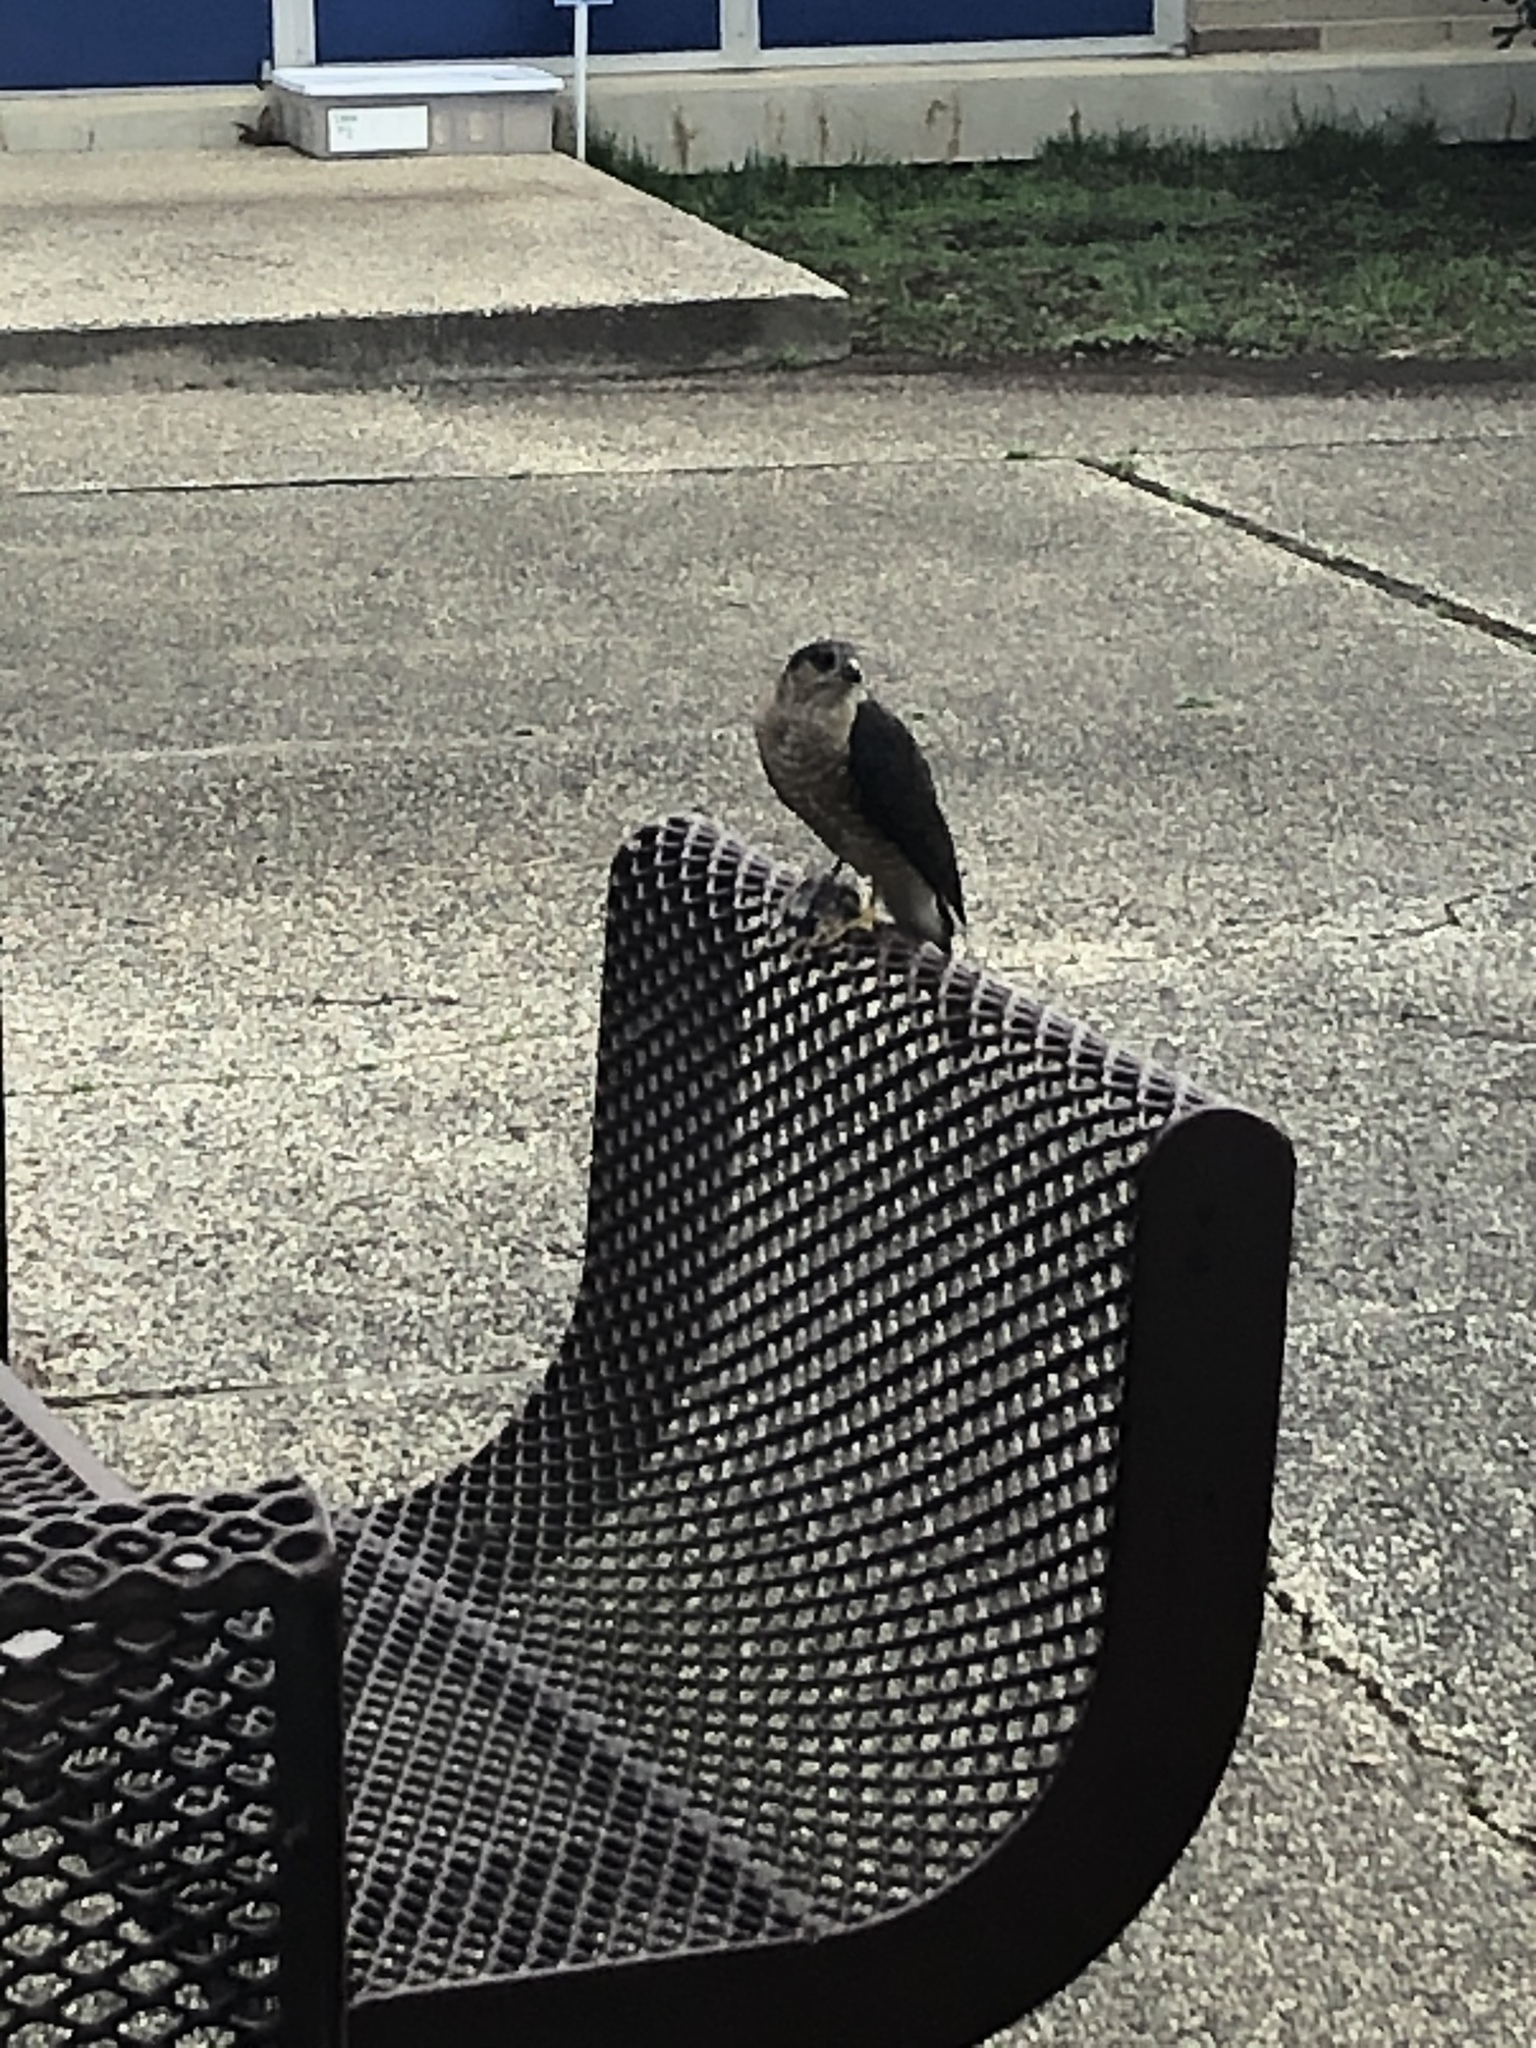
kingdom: Animalia
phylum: Chordata
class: Aves
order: Accipitriformes
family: Accipitridae
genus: Accipiter
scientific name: Accipiter striatus
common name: Sharp-shinned hawk
